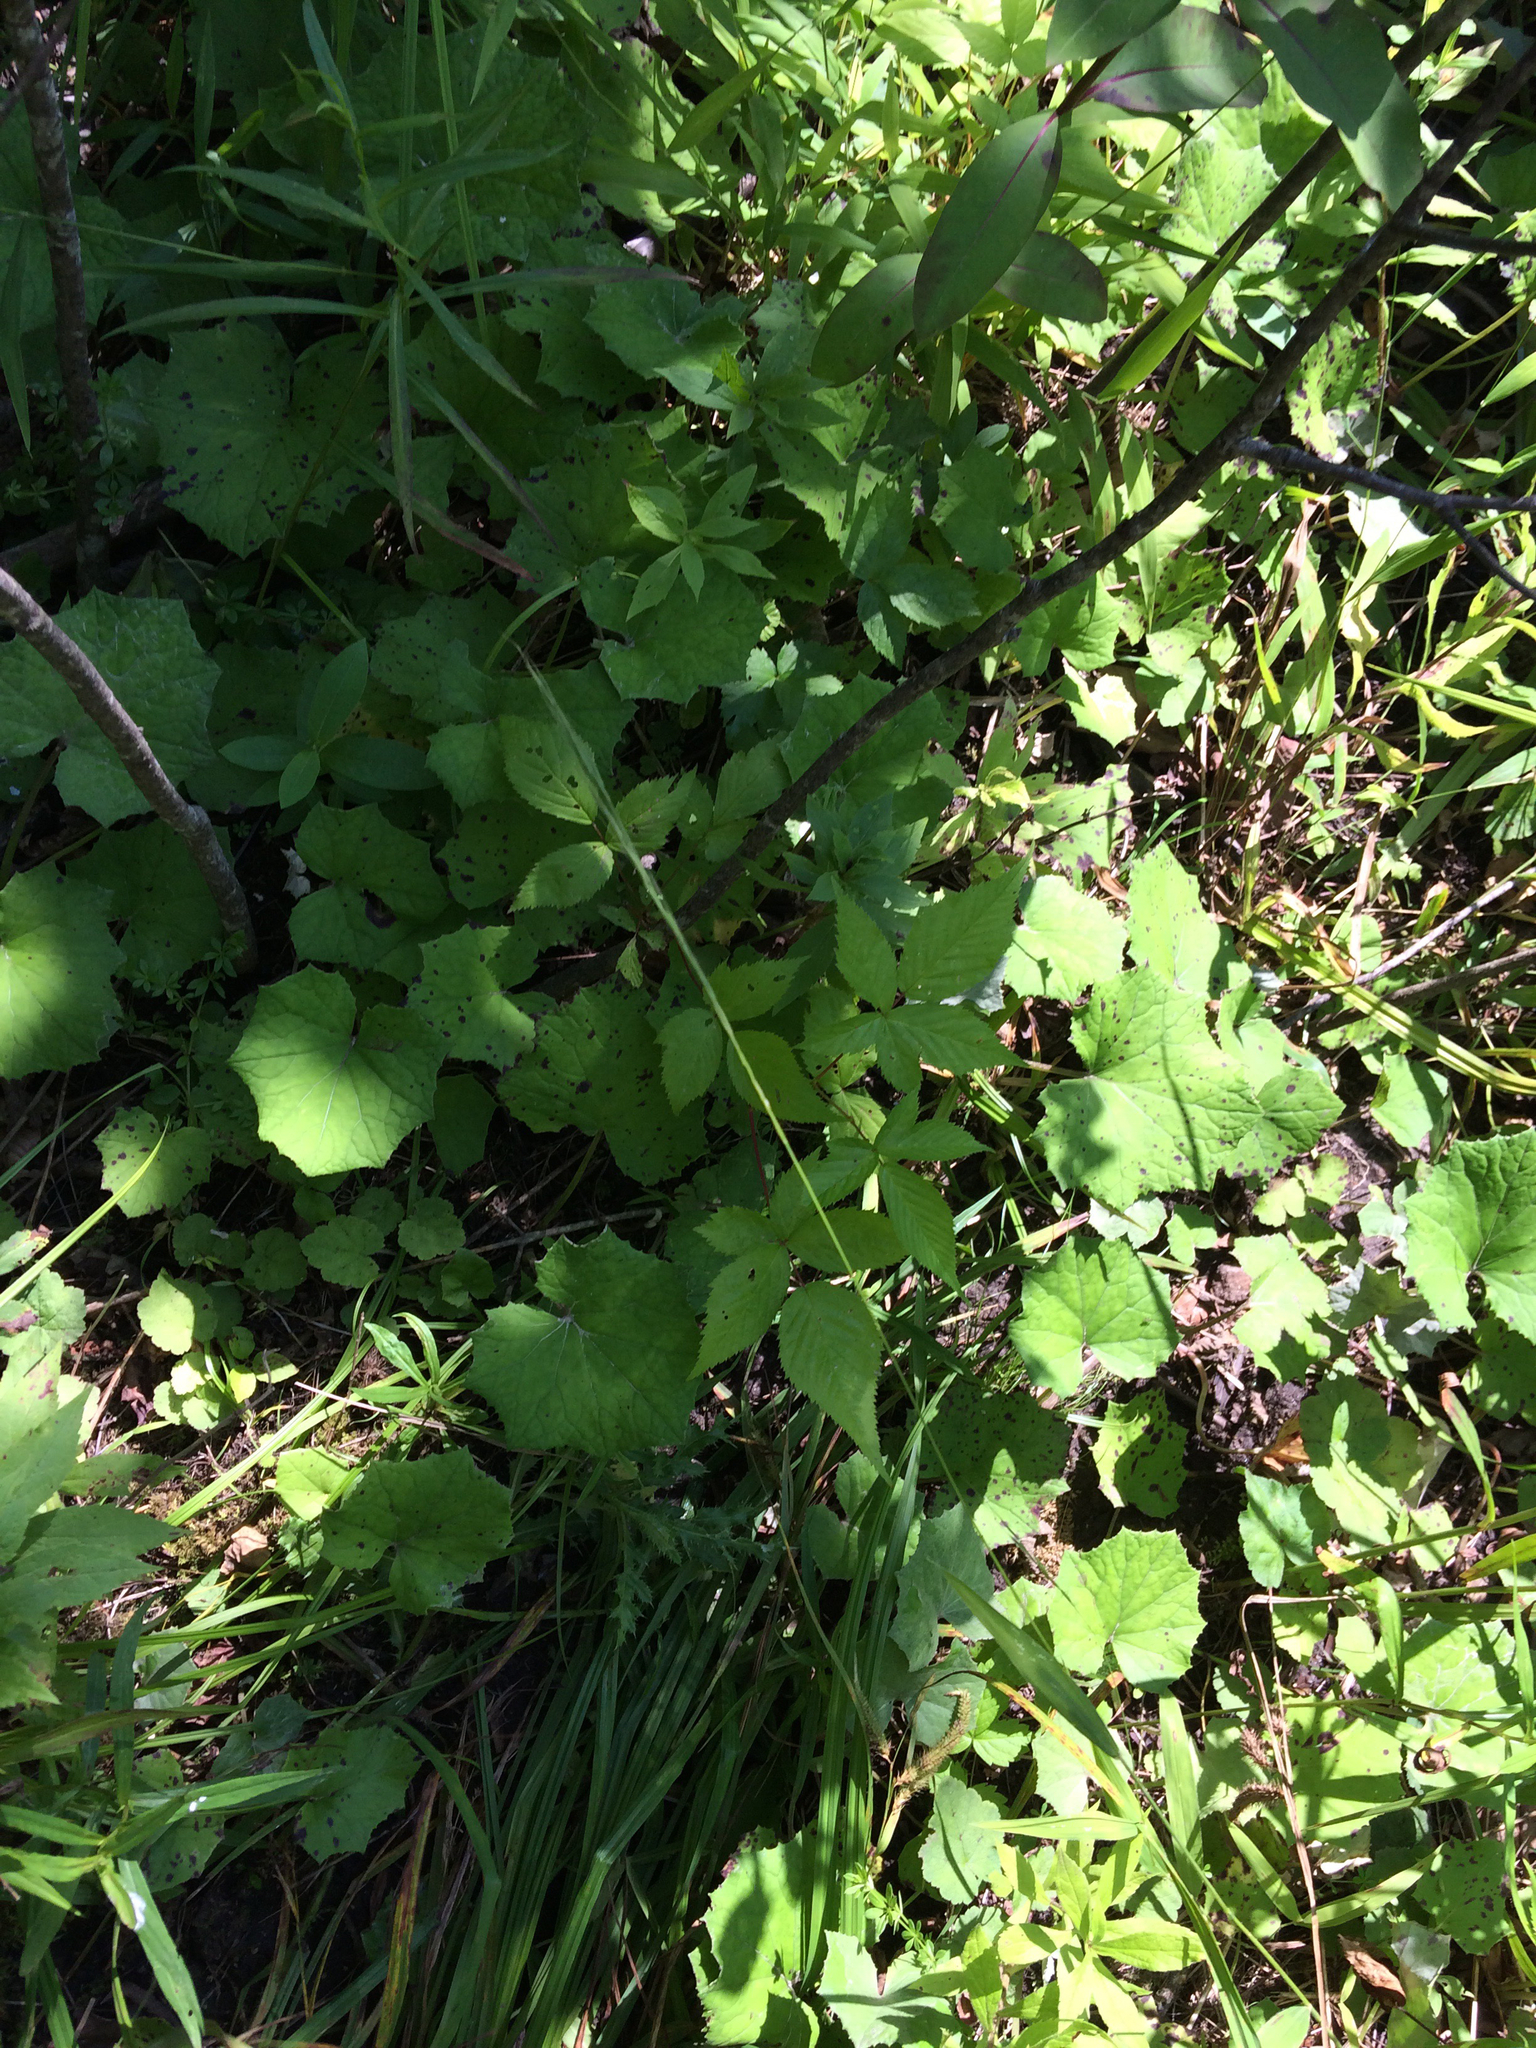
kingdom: Plantae
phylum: Tracheophyta
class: Magnoliopsida
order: Asterales
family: Asteraceae
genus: Tussilago
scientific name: Tussilago farfara
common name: Coltsfoot
